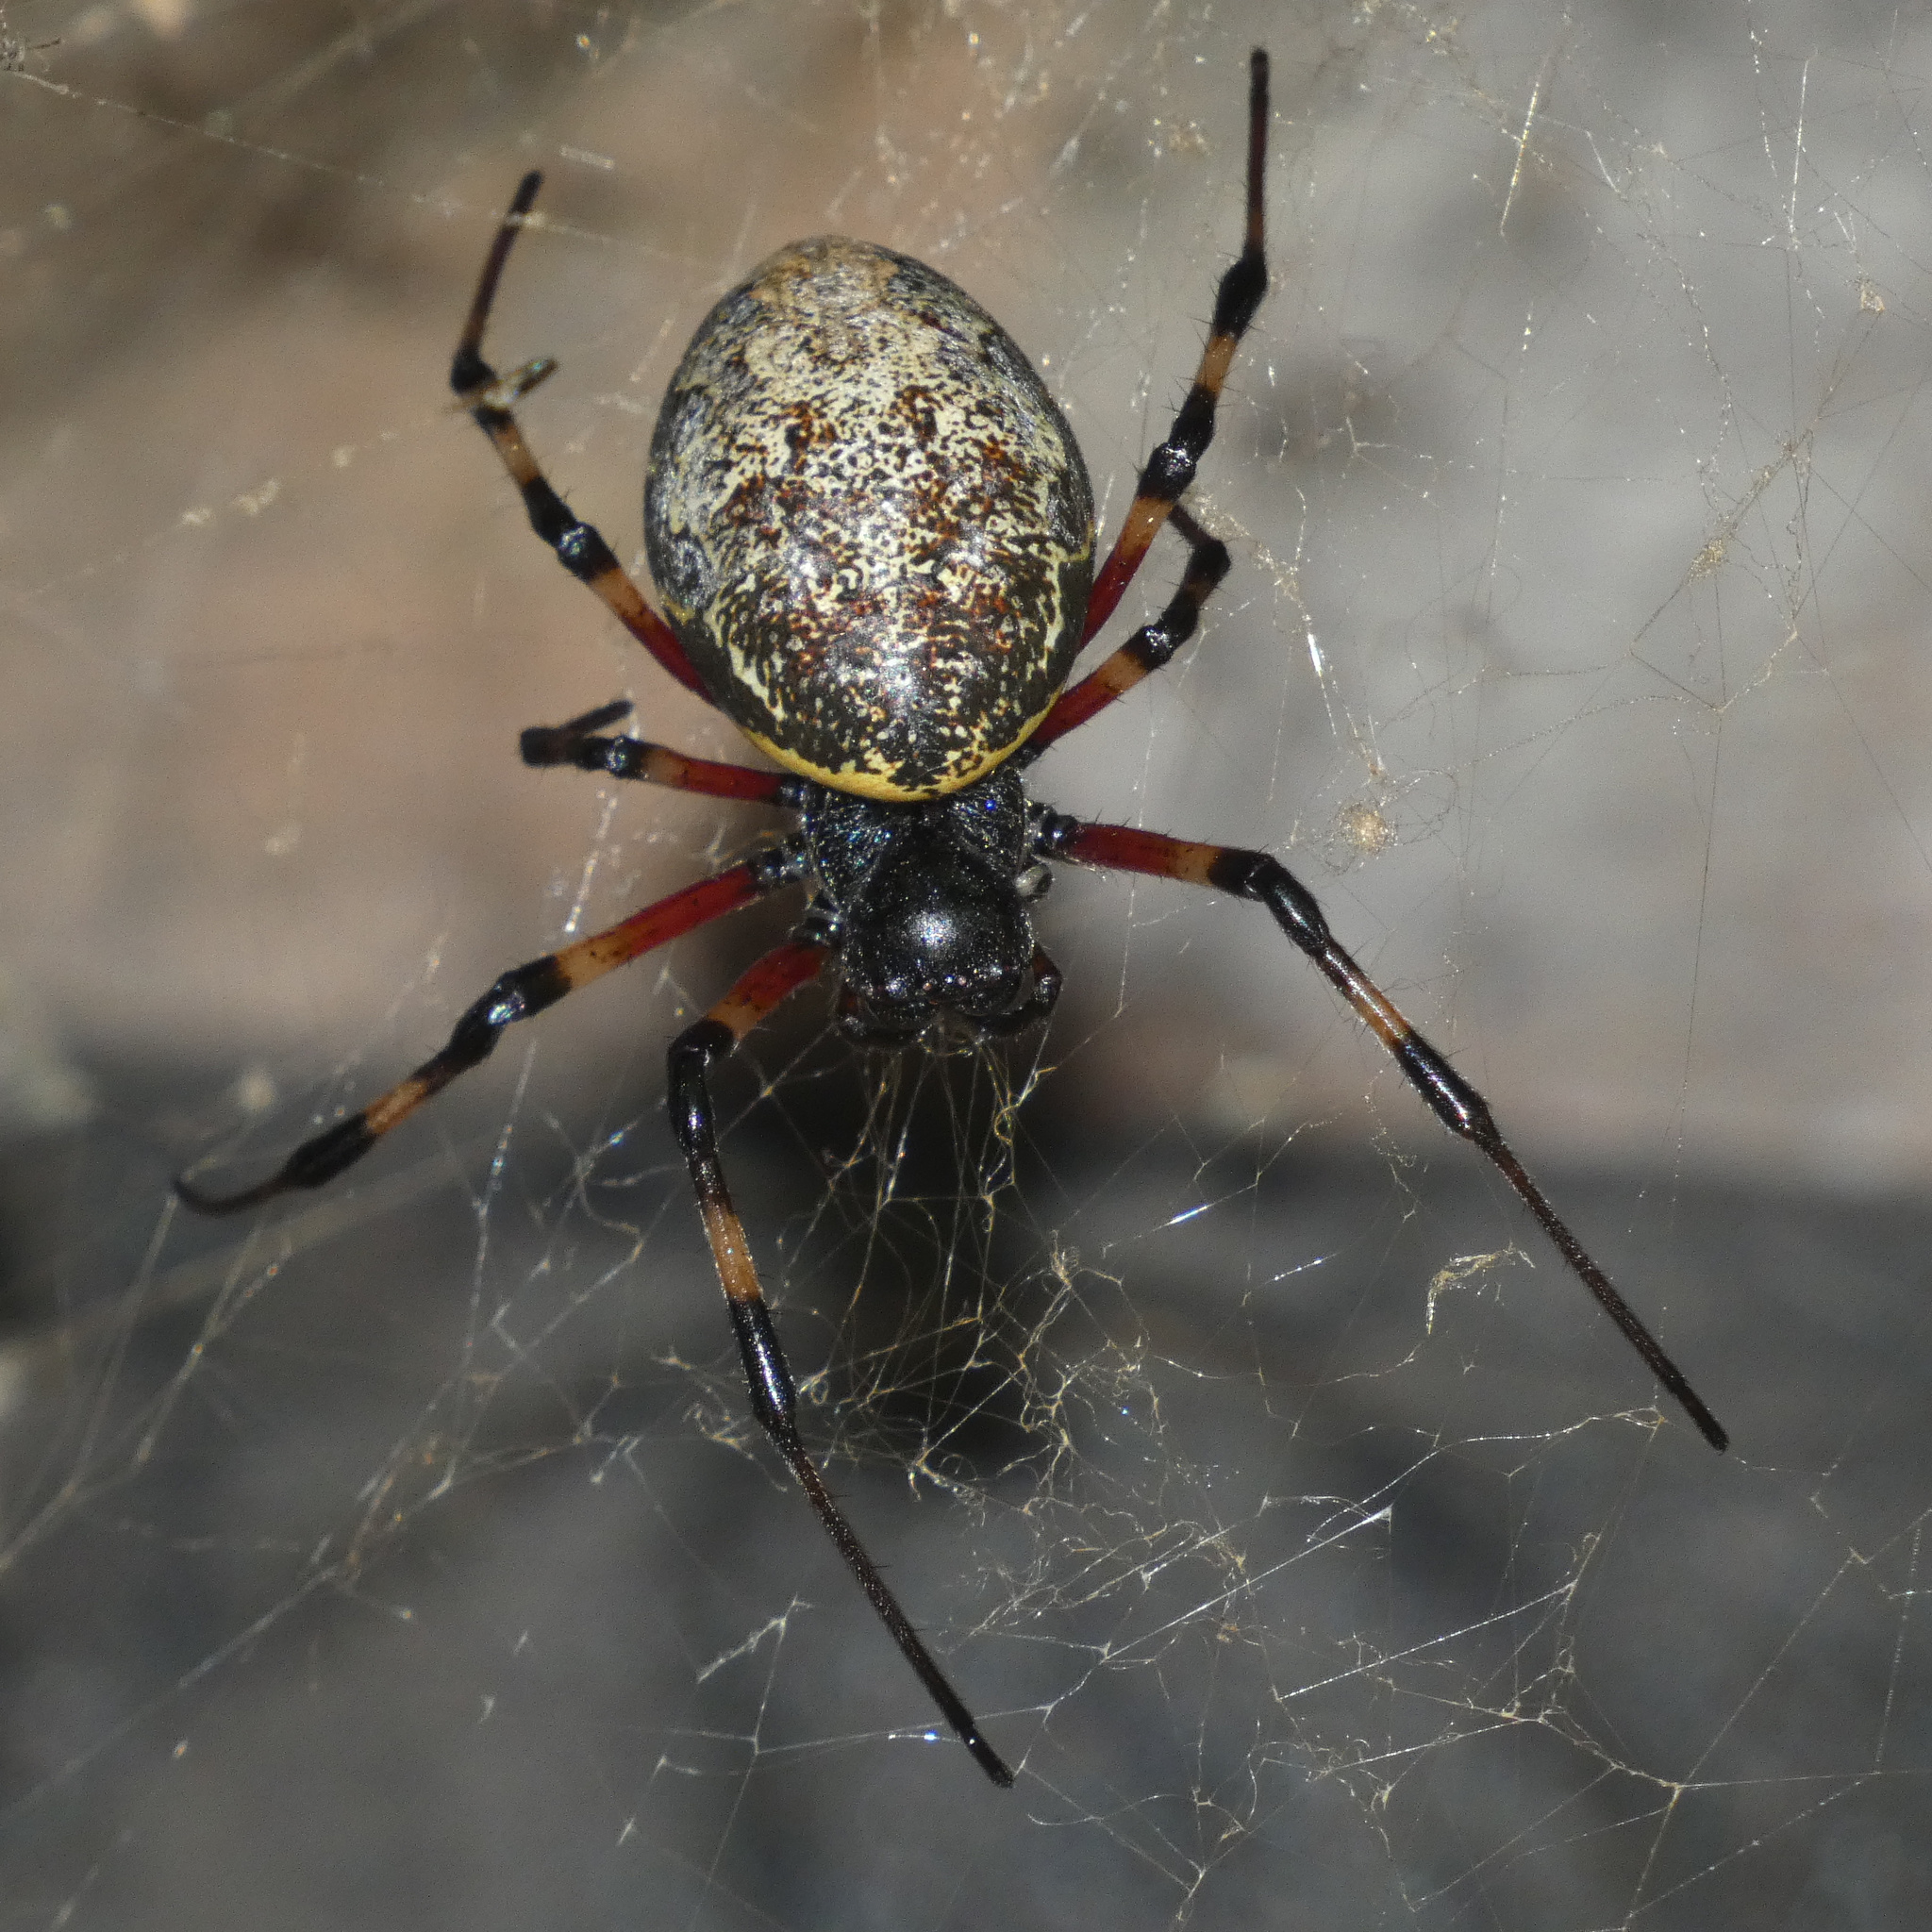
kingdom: Animalia
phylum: Arthropoda
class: Arachnida
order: Araneae
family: Araneidae
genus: Nephilingis
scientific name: Nephilingis cruentata
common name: African hermit spider
